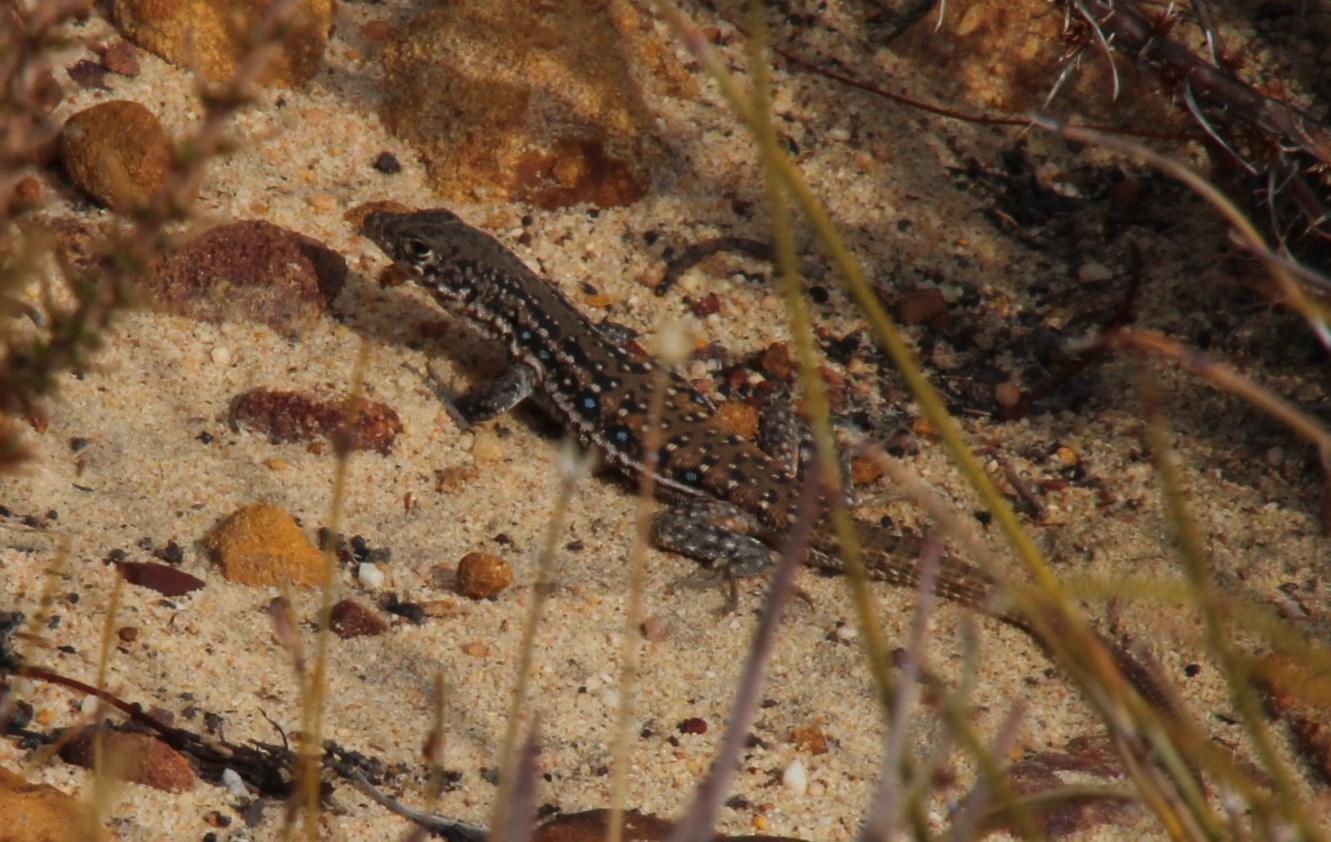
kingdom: Animalia
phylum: Chordata
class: Squamata
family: Lacertidae
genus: Pedioplanis
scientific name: Pedioplanis lineoocellata
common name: Spotted sand lizard
